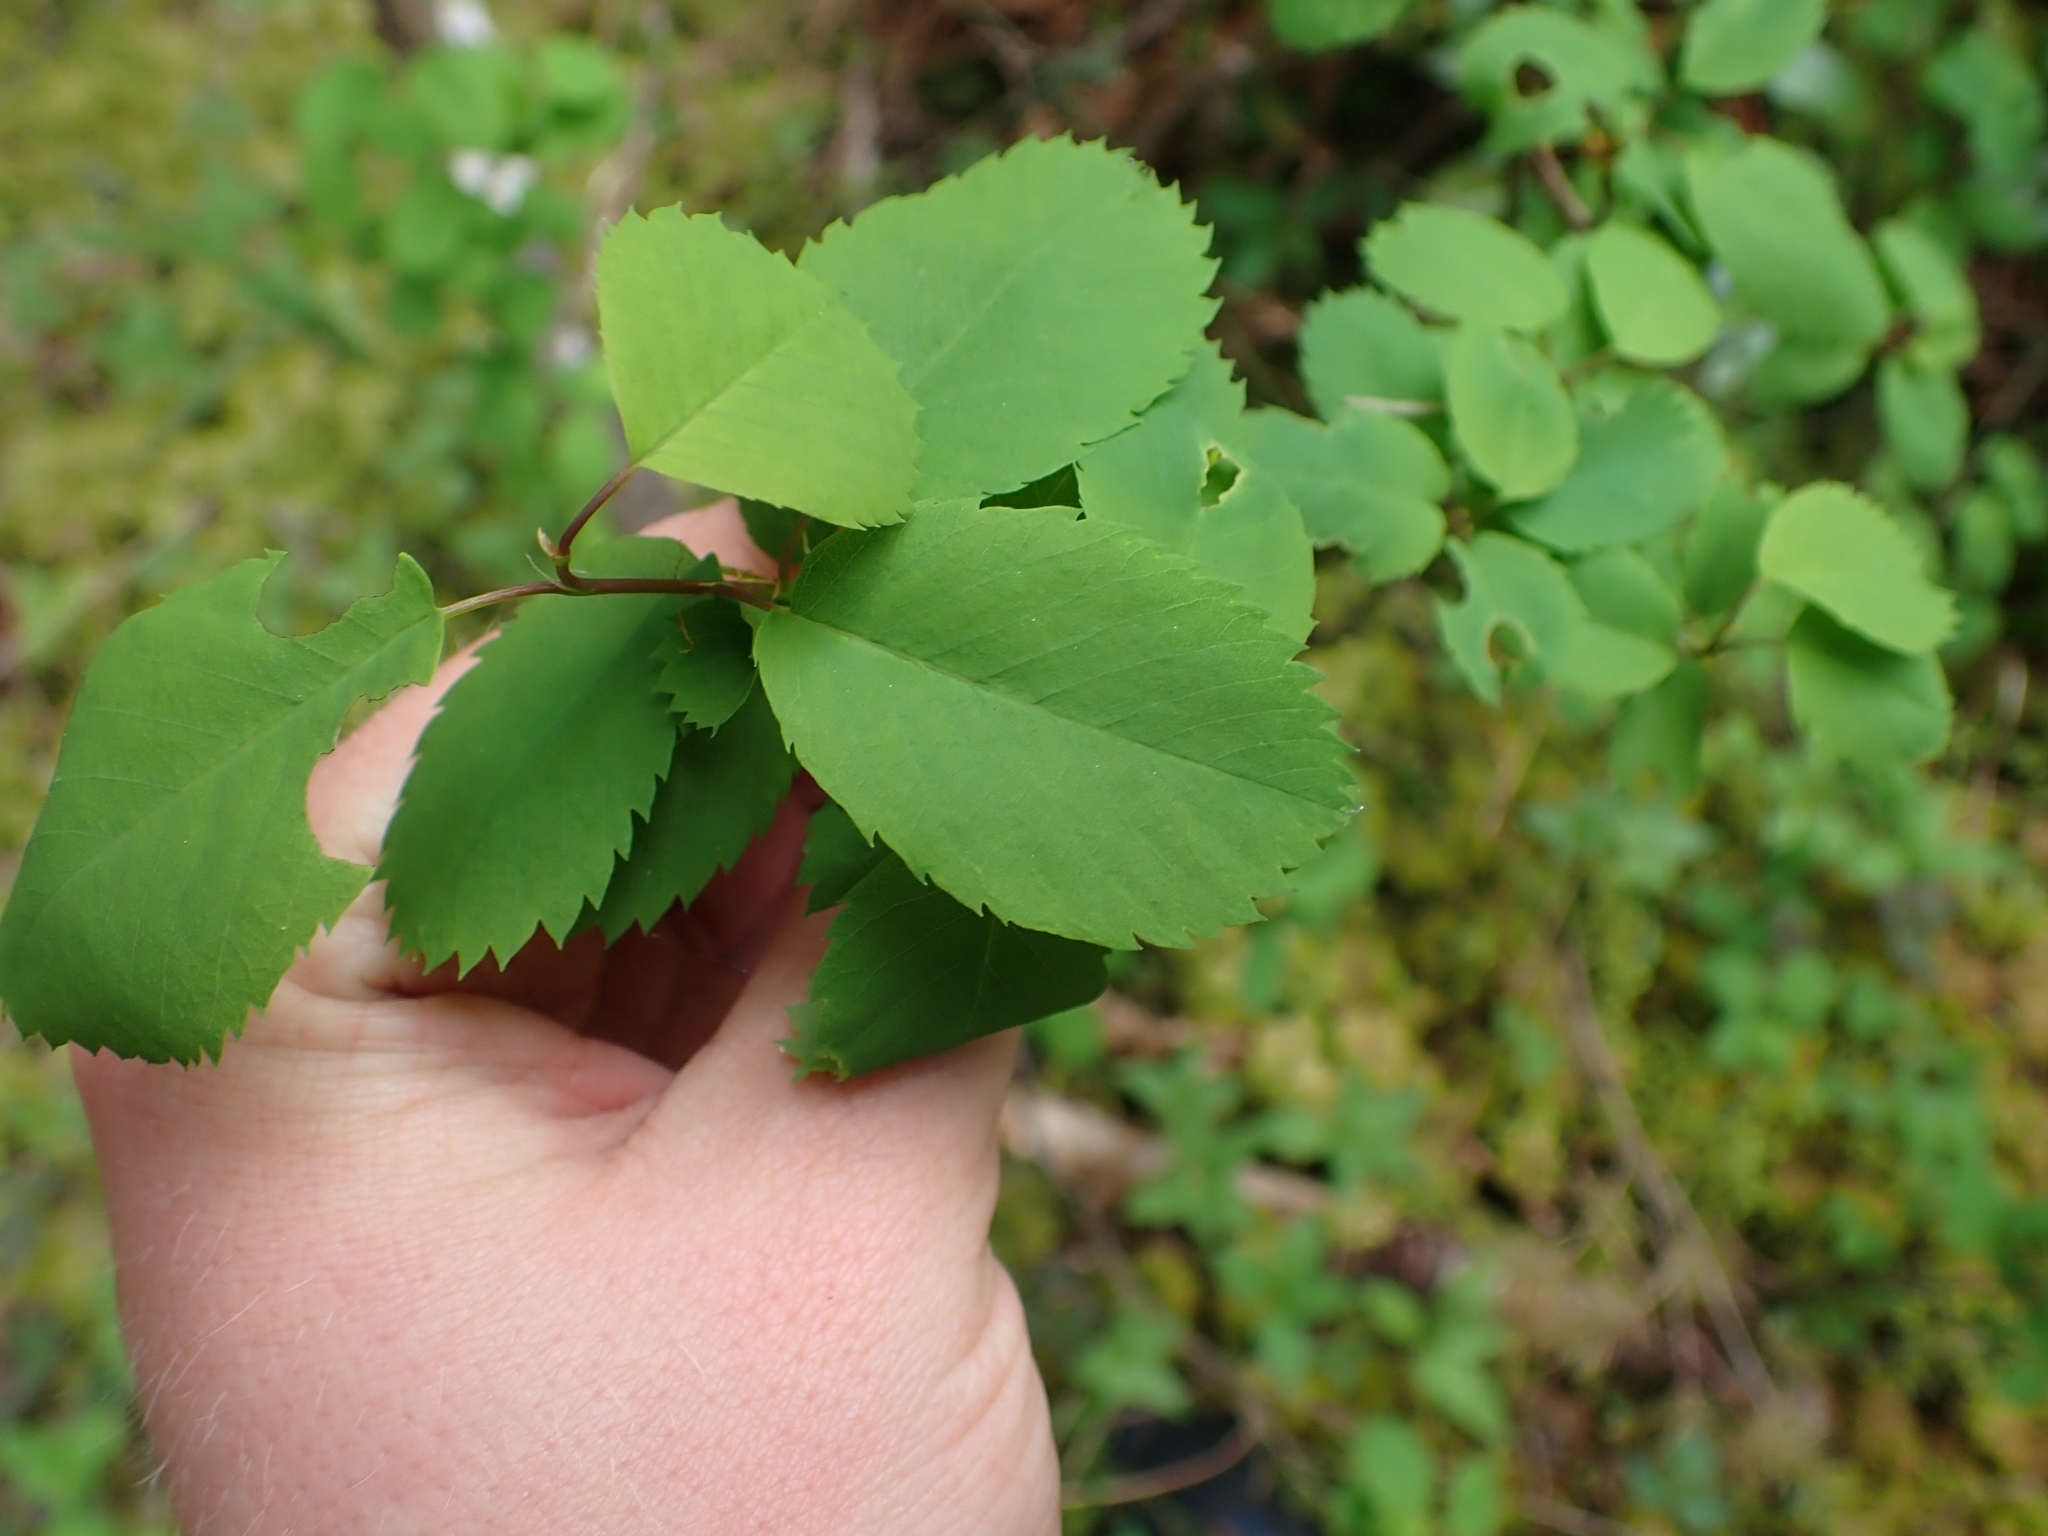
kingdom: Plantae
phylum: Tracheophyta
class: Magnoliopsida
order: Rosales
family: Rosaceae
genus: Amelanchier
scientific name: Amelanchier alnifolia
